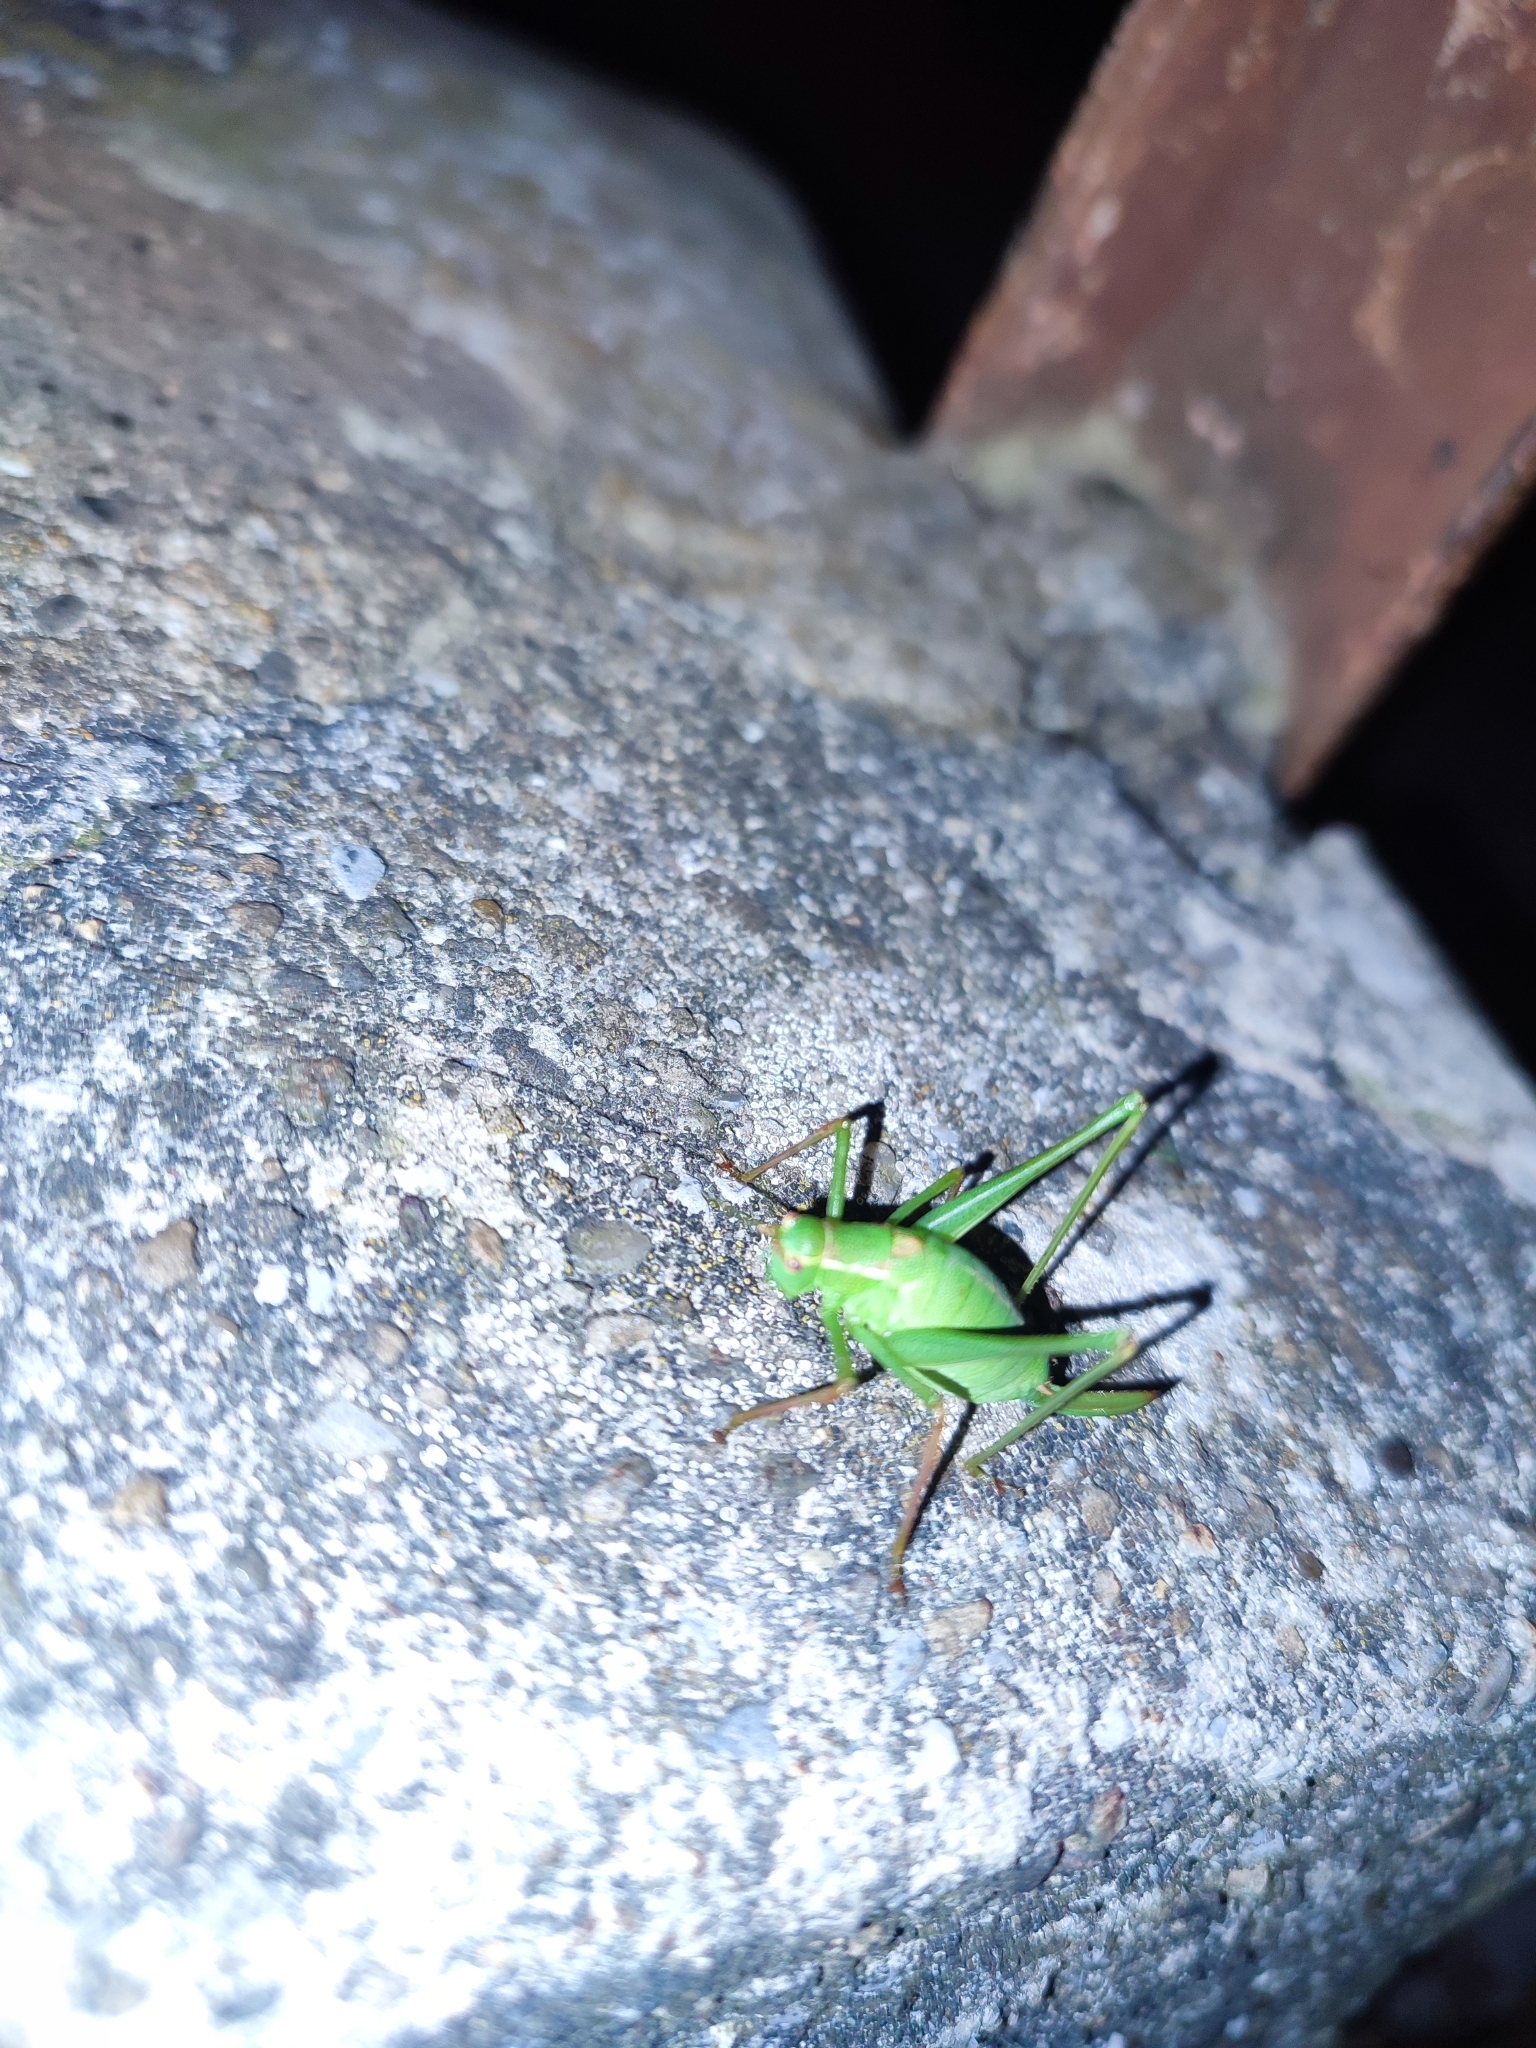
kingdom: Animalia
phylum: Arthropoda
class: Insecta
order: Orthoptera
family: Tettigoniidae
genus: Leptophyes
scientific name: Leptophyes punctatissima
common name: Speckled bush-cricket
